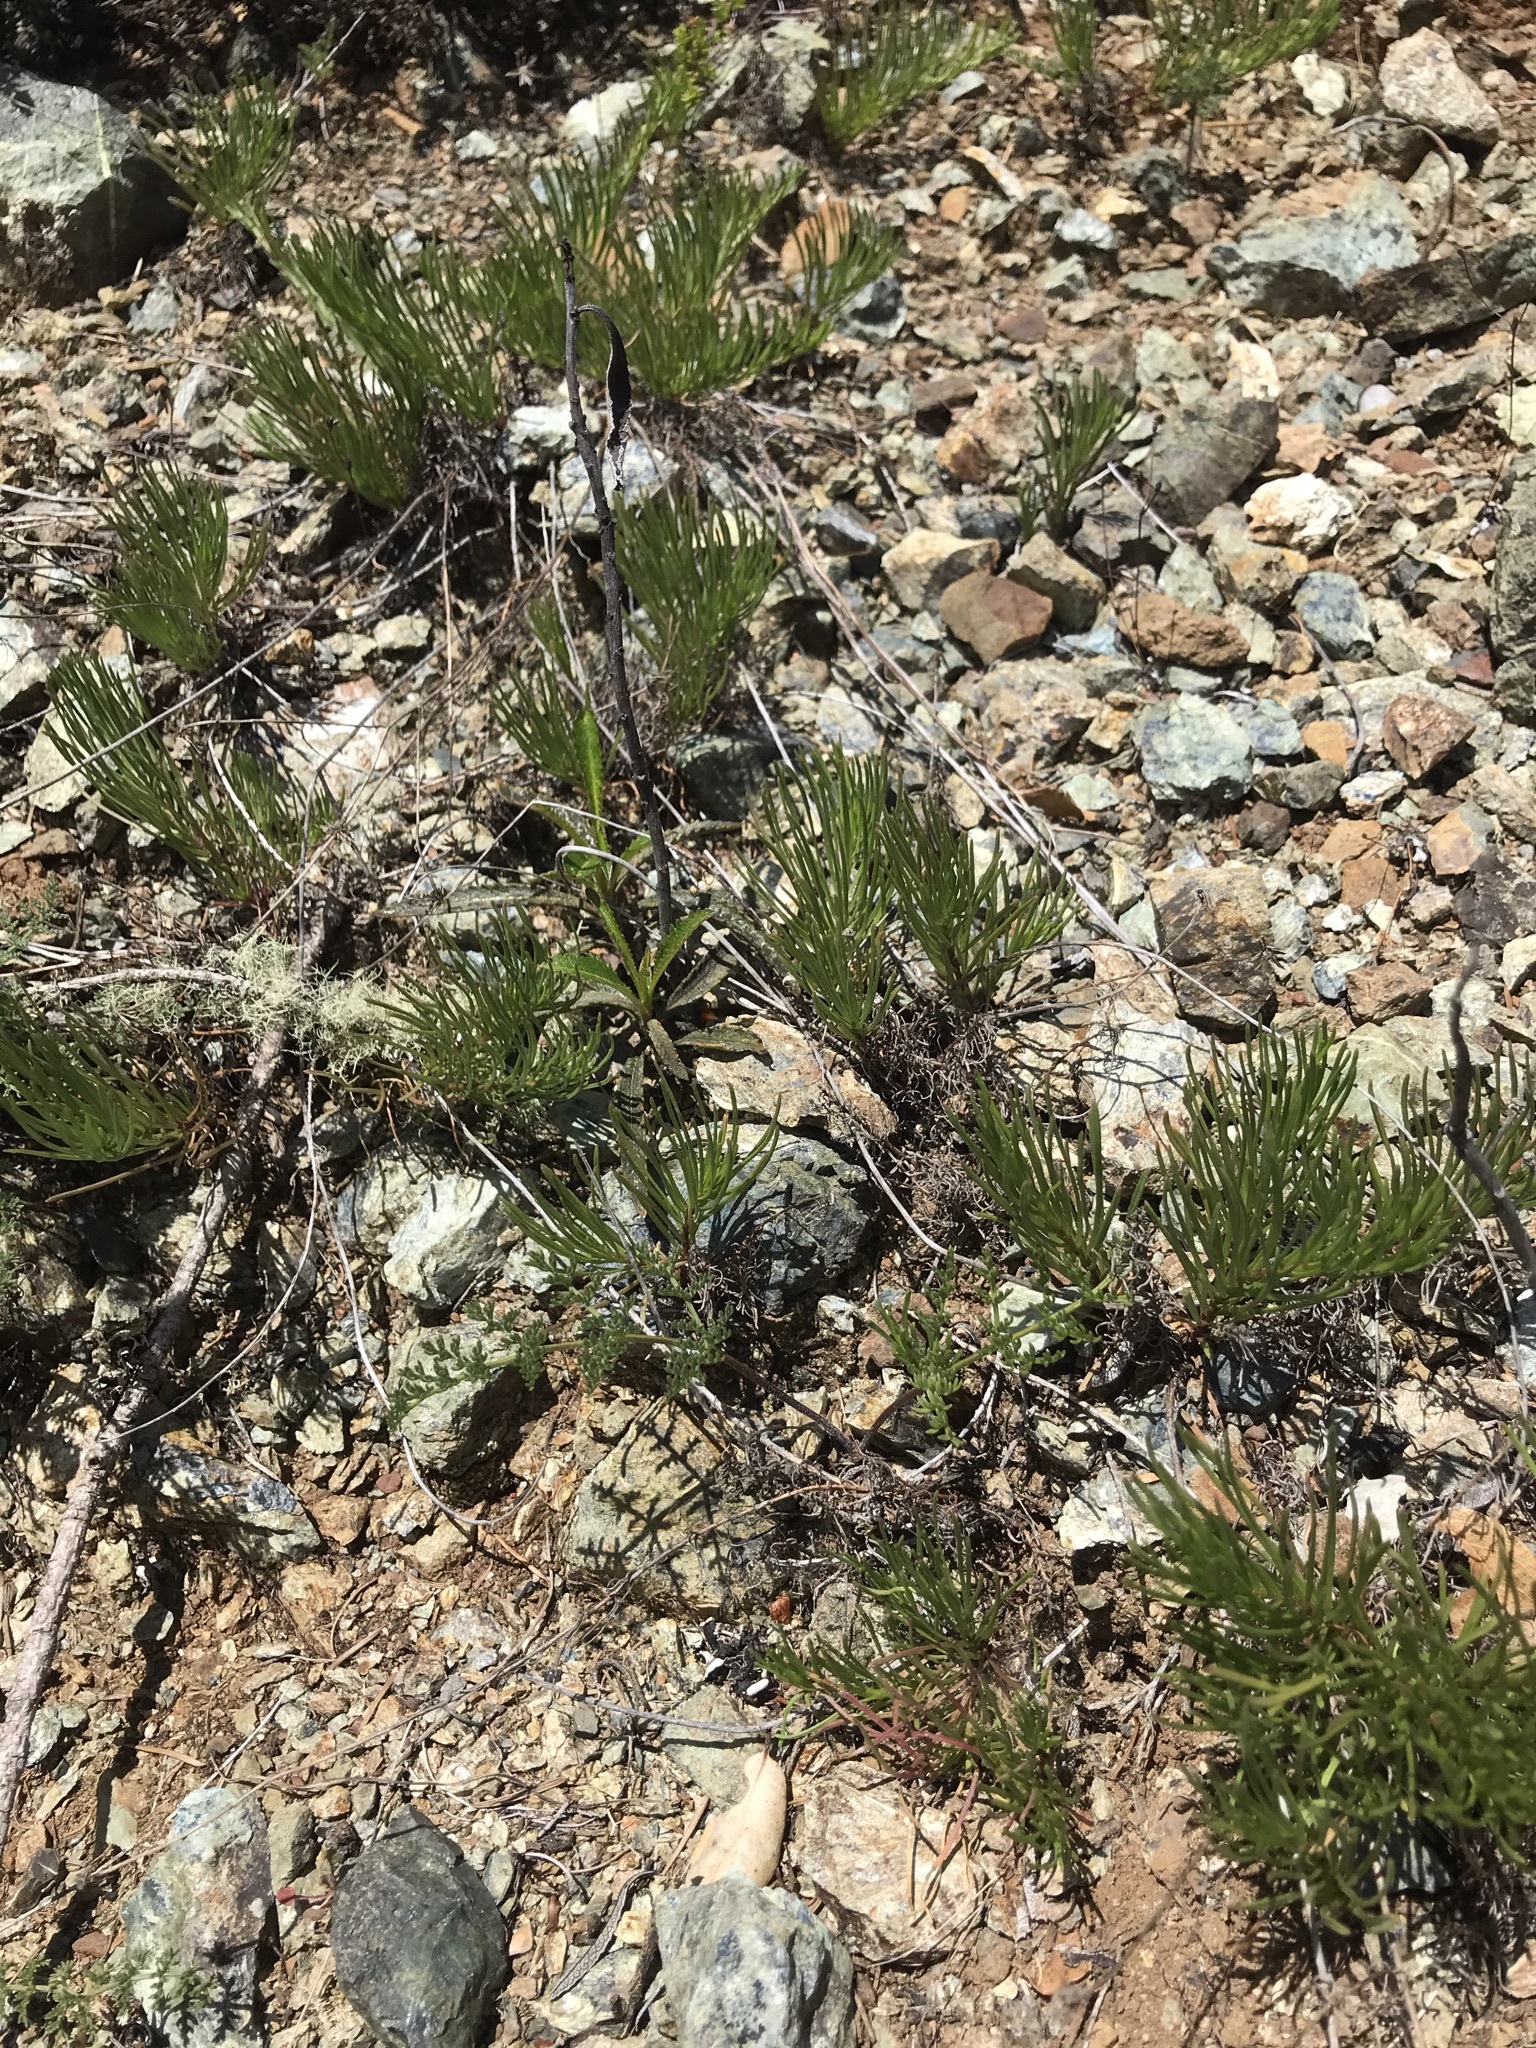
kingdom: Plantae
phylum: Tracheophyta
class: Magnoliopsida
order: Asterales
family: Asteraceae
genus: Erigeron
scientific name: Erigeron greenei
